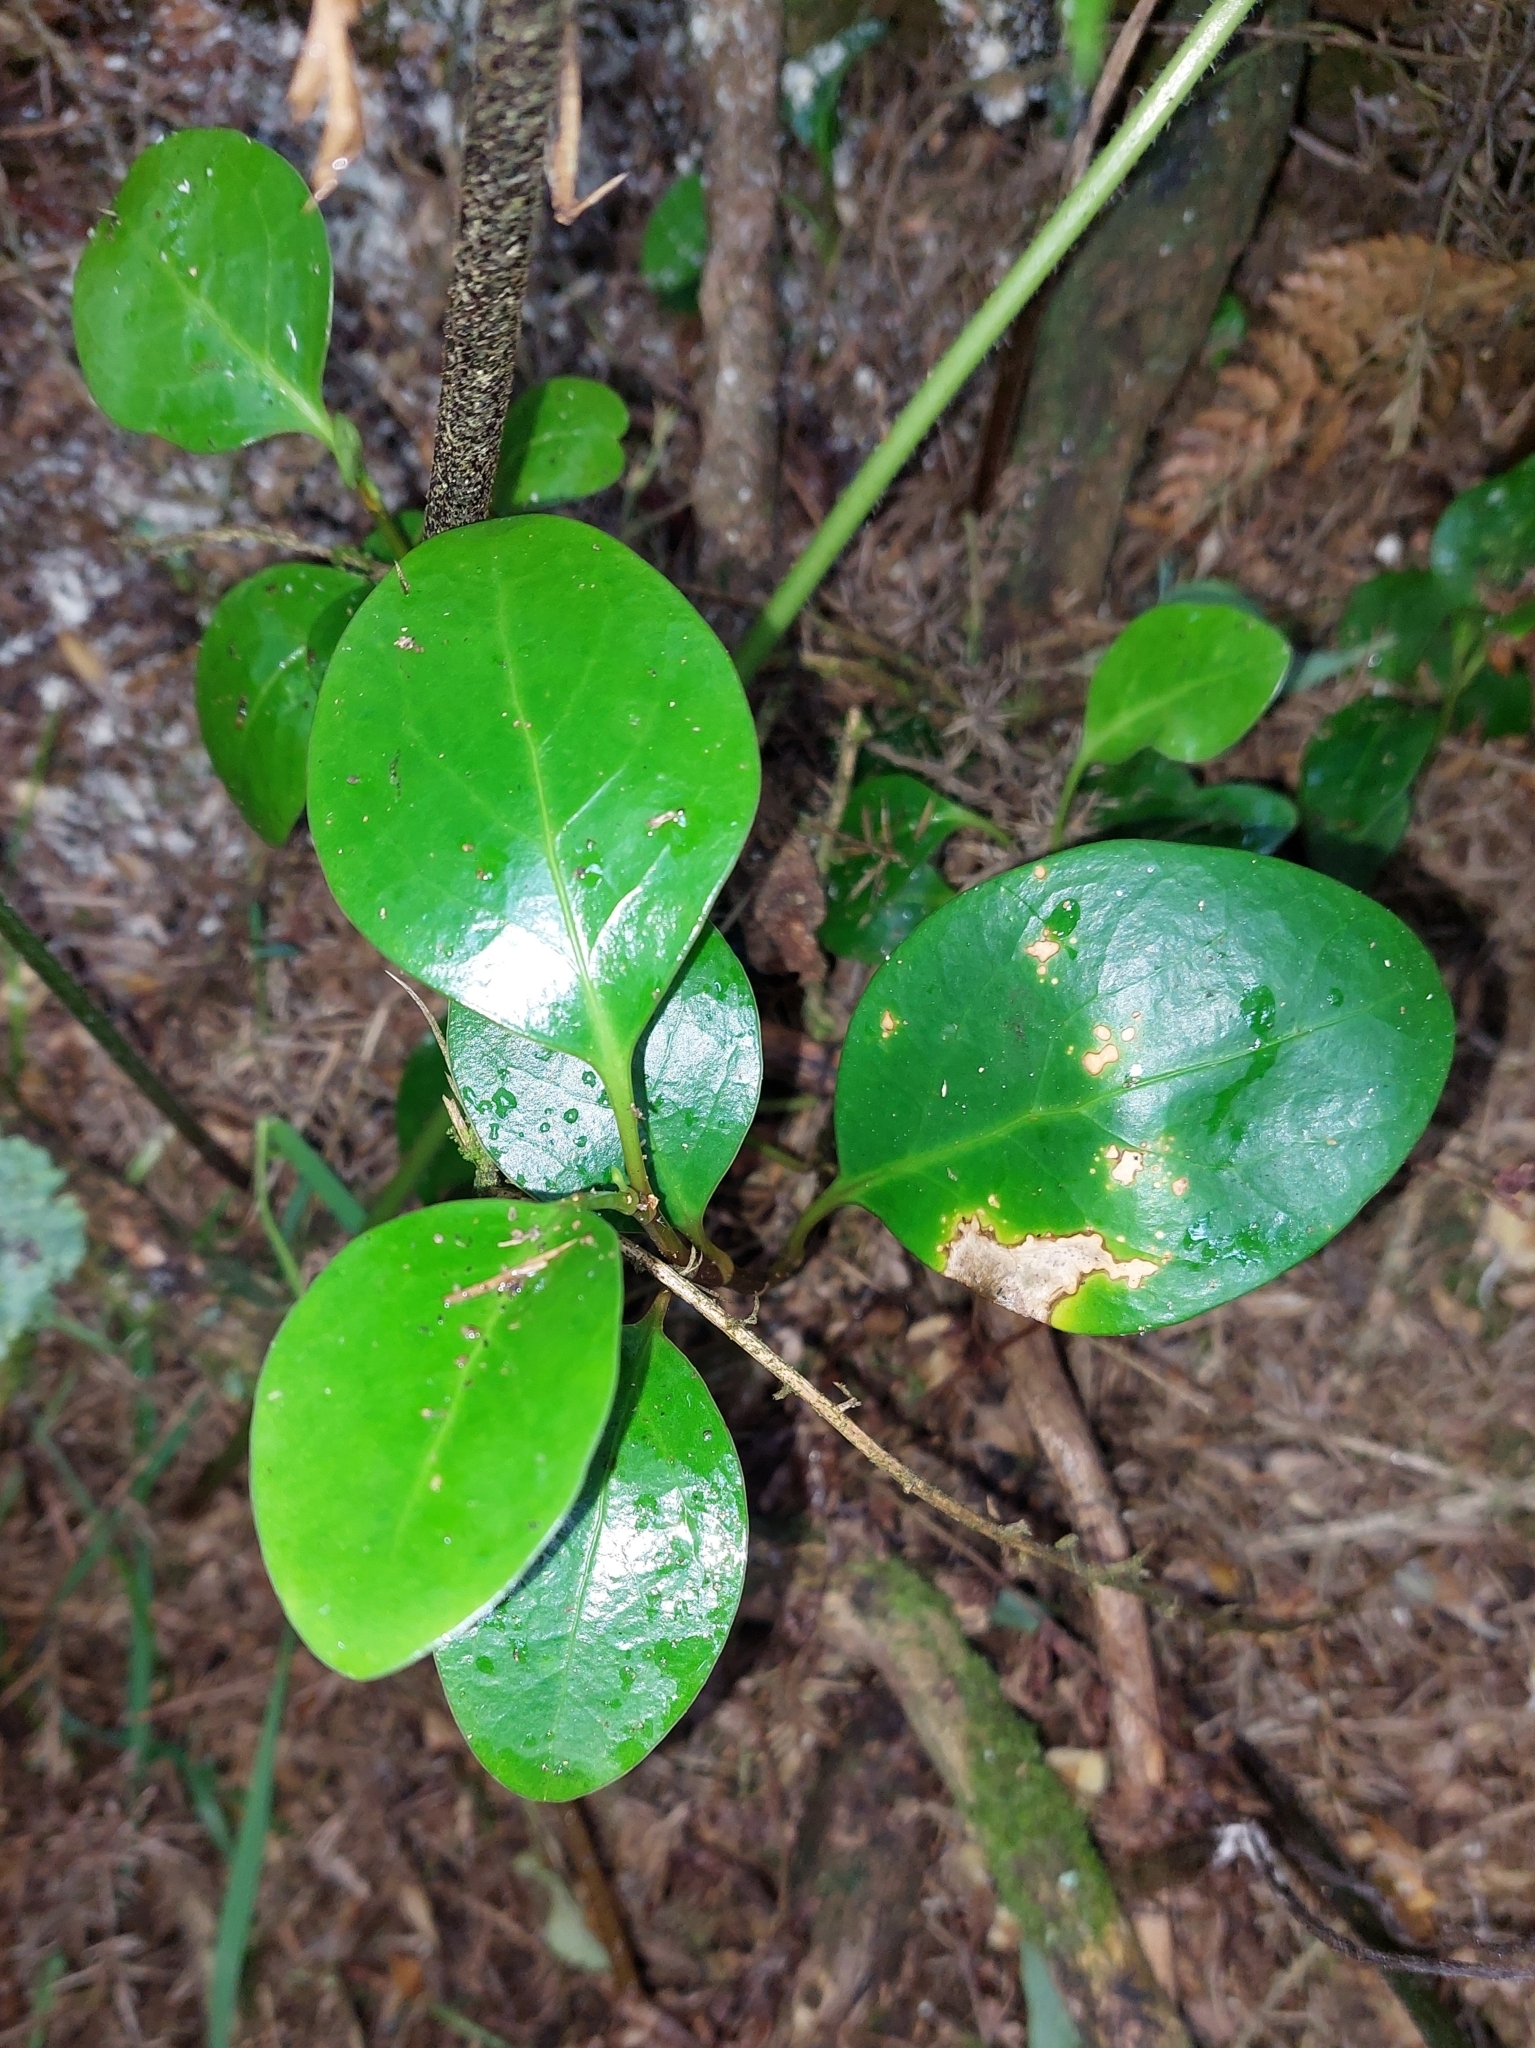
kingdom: Plantae
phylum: Tracheophyta
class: Magnoliopsida
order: Apiales
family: Griseliniaceae
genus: Griselinia
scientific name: Griselinia littoralis
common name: New zealand broadleaf
